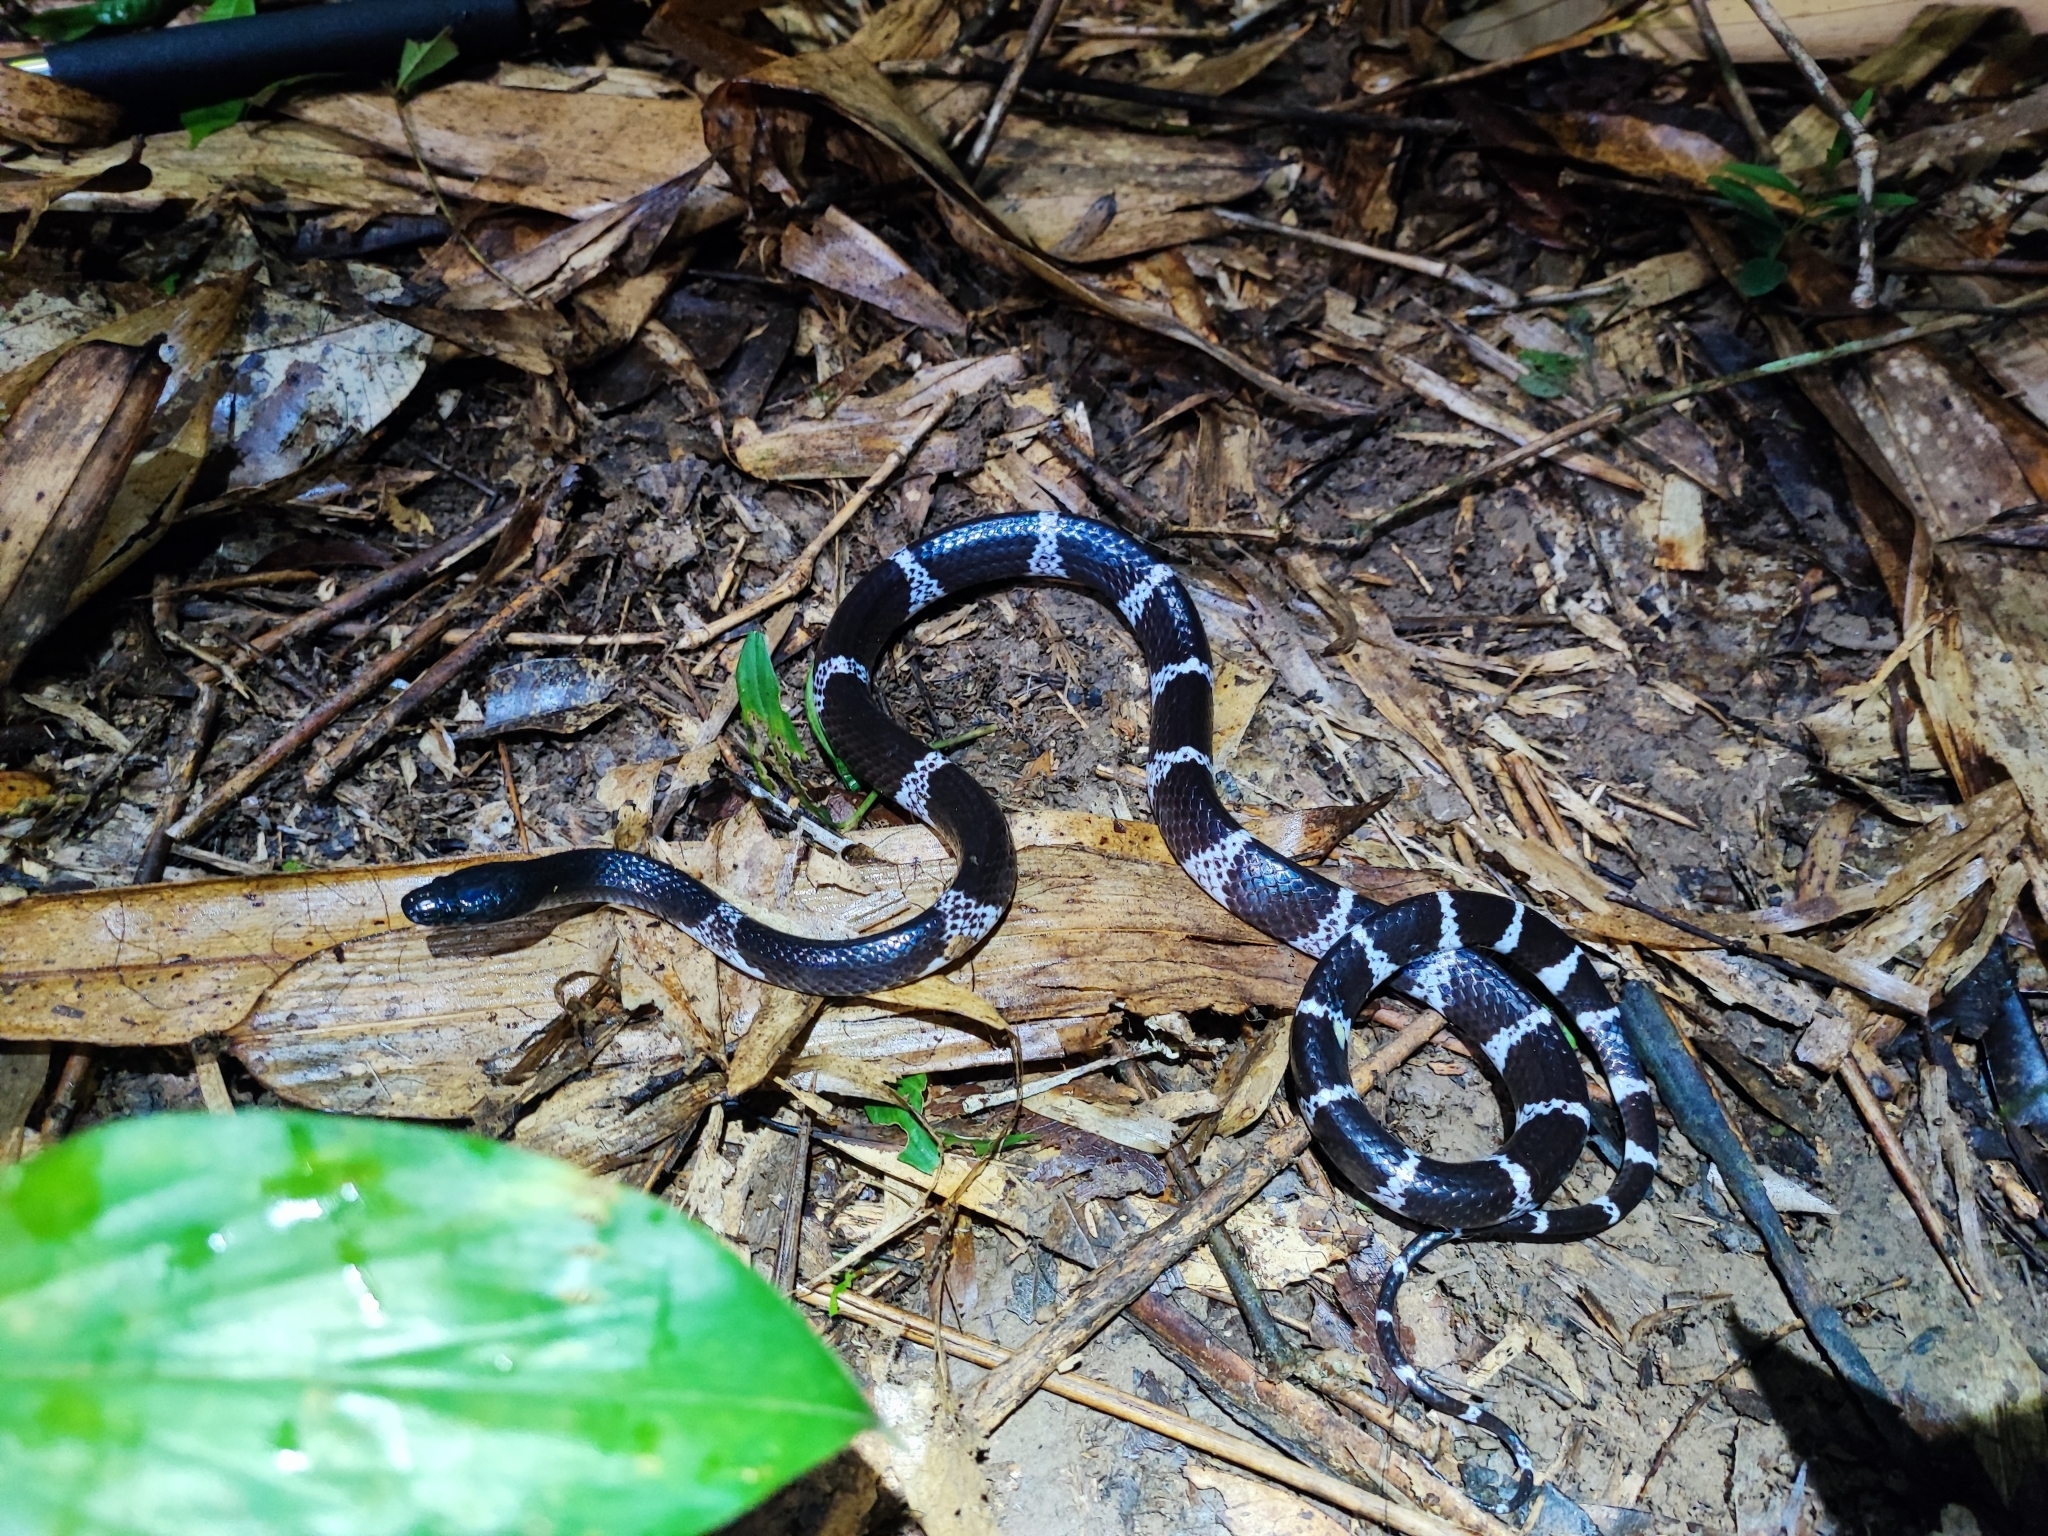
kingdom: Animalia
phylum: Chordata
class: Squamata
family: Colubridae
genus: Lycodon
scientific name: Lycodon truongi
